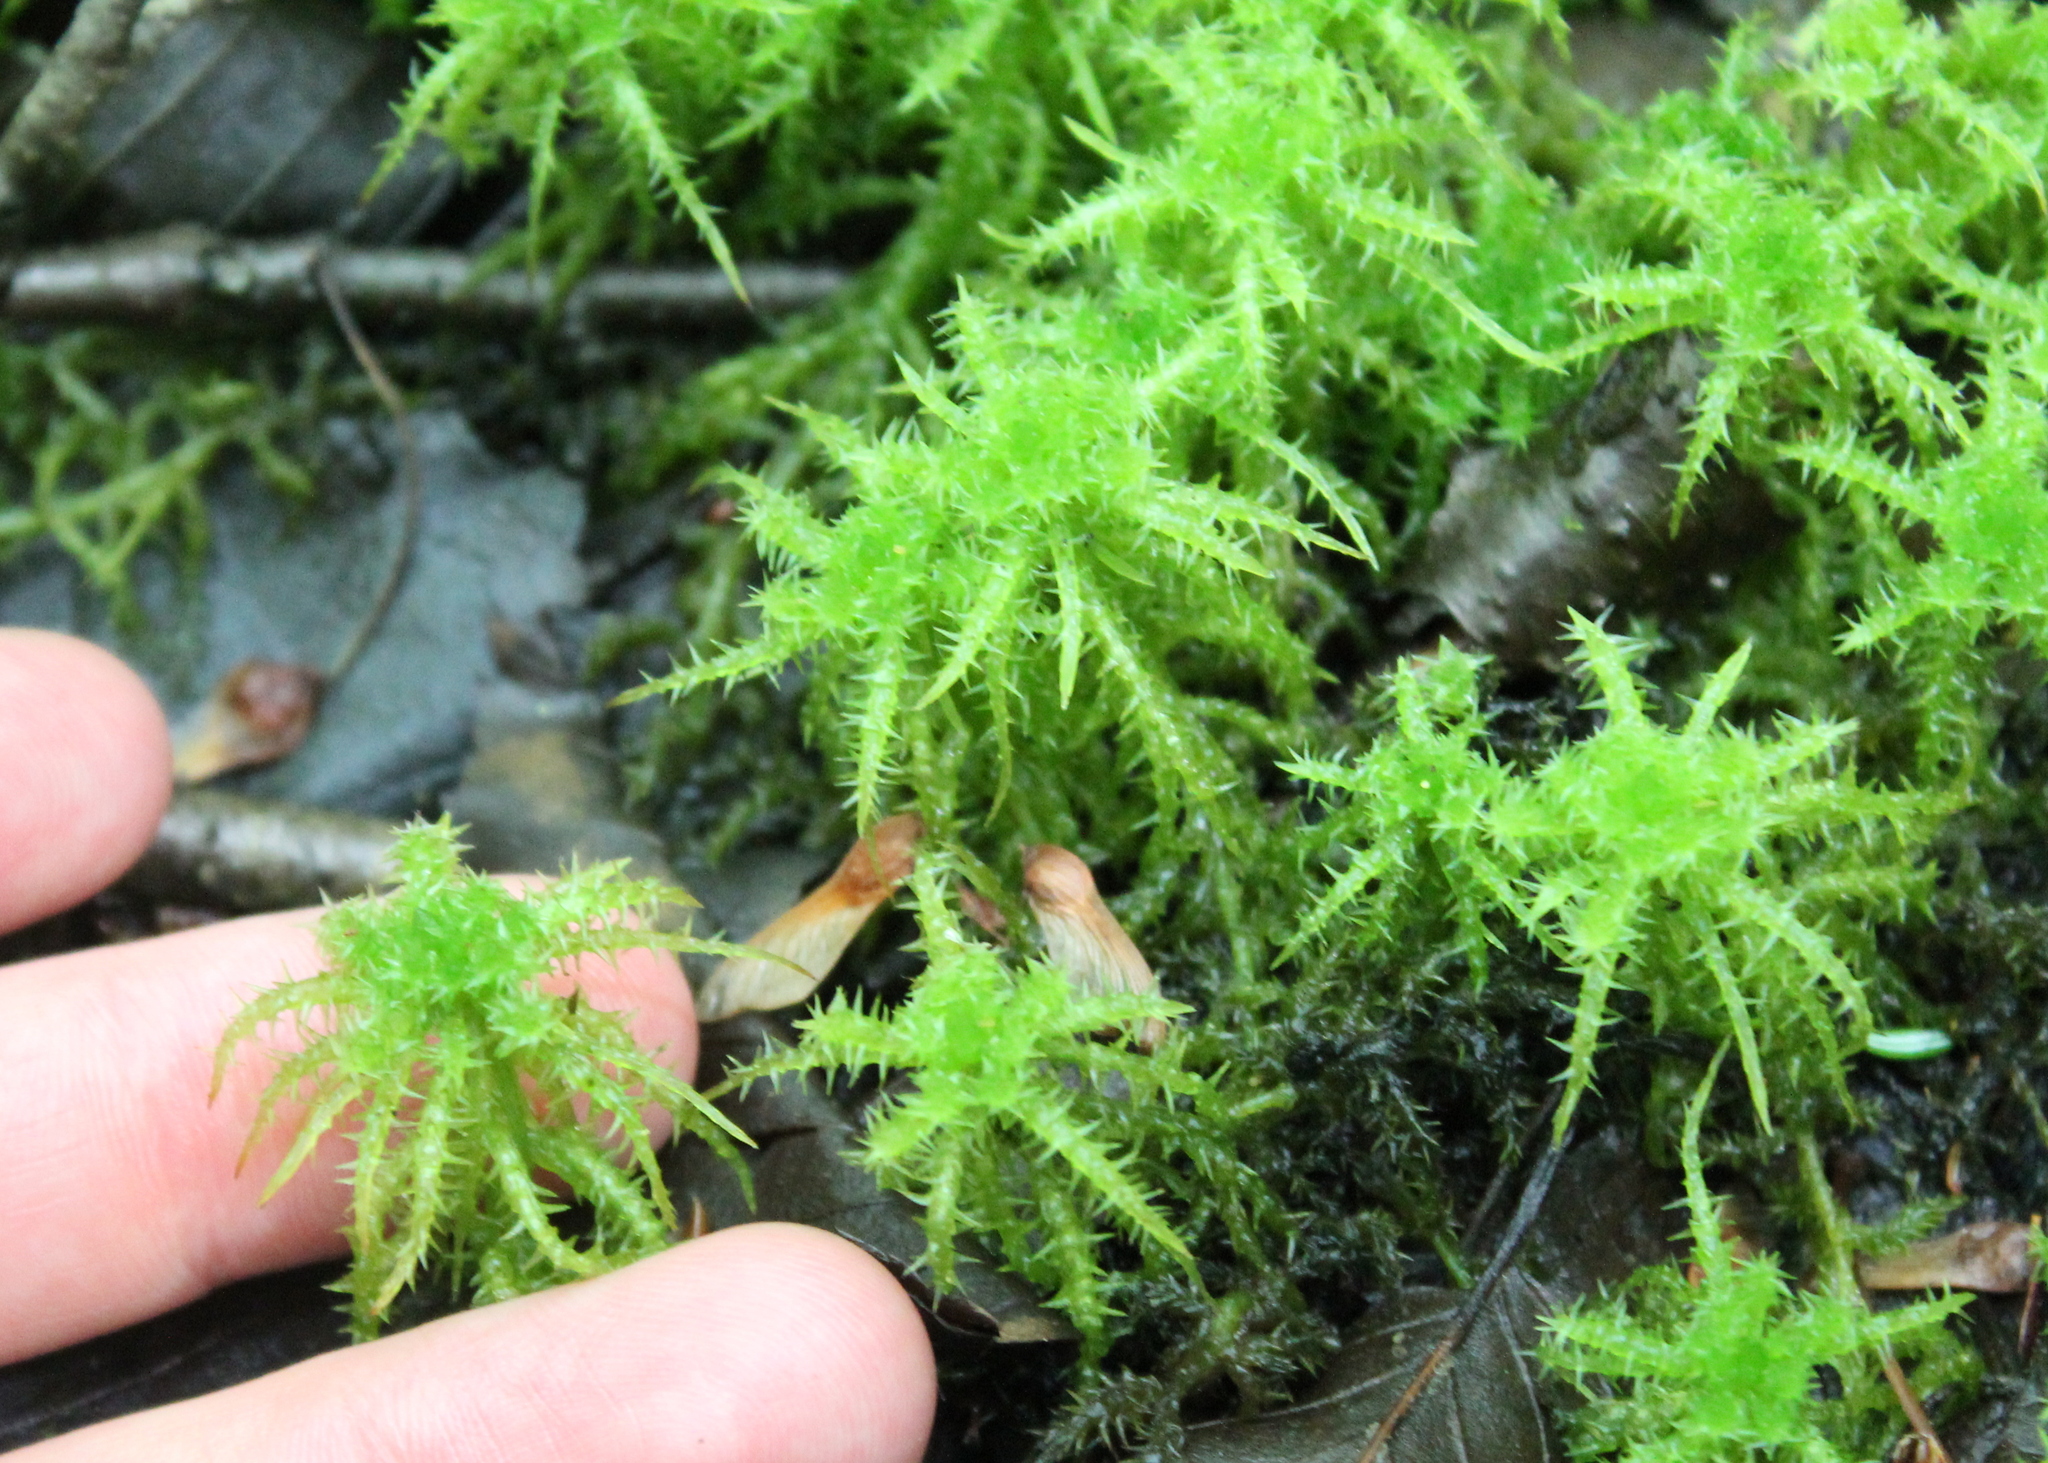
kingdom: Plantae
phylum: Bryophyta
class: Sphagnopsida
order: Sphagnales
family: Sphagnaceae
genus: Sphagnum
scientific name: Sphagnum squarrosum
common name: Shaggy peat moss
